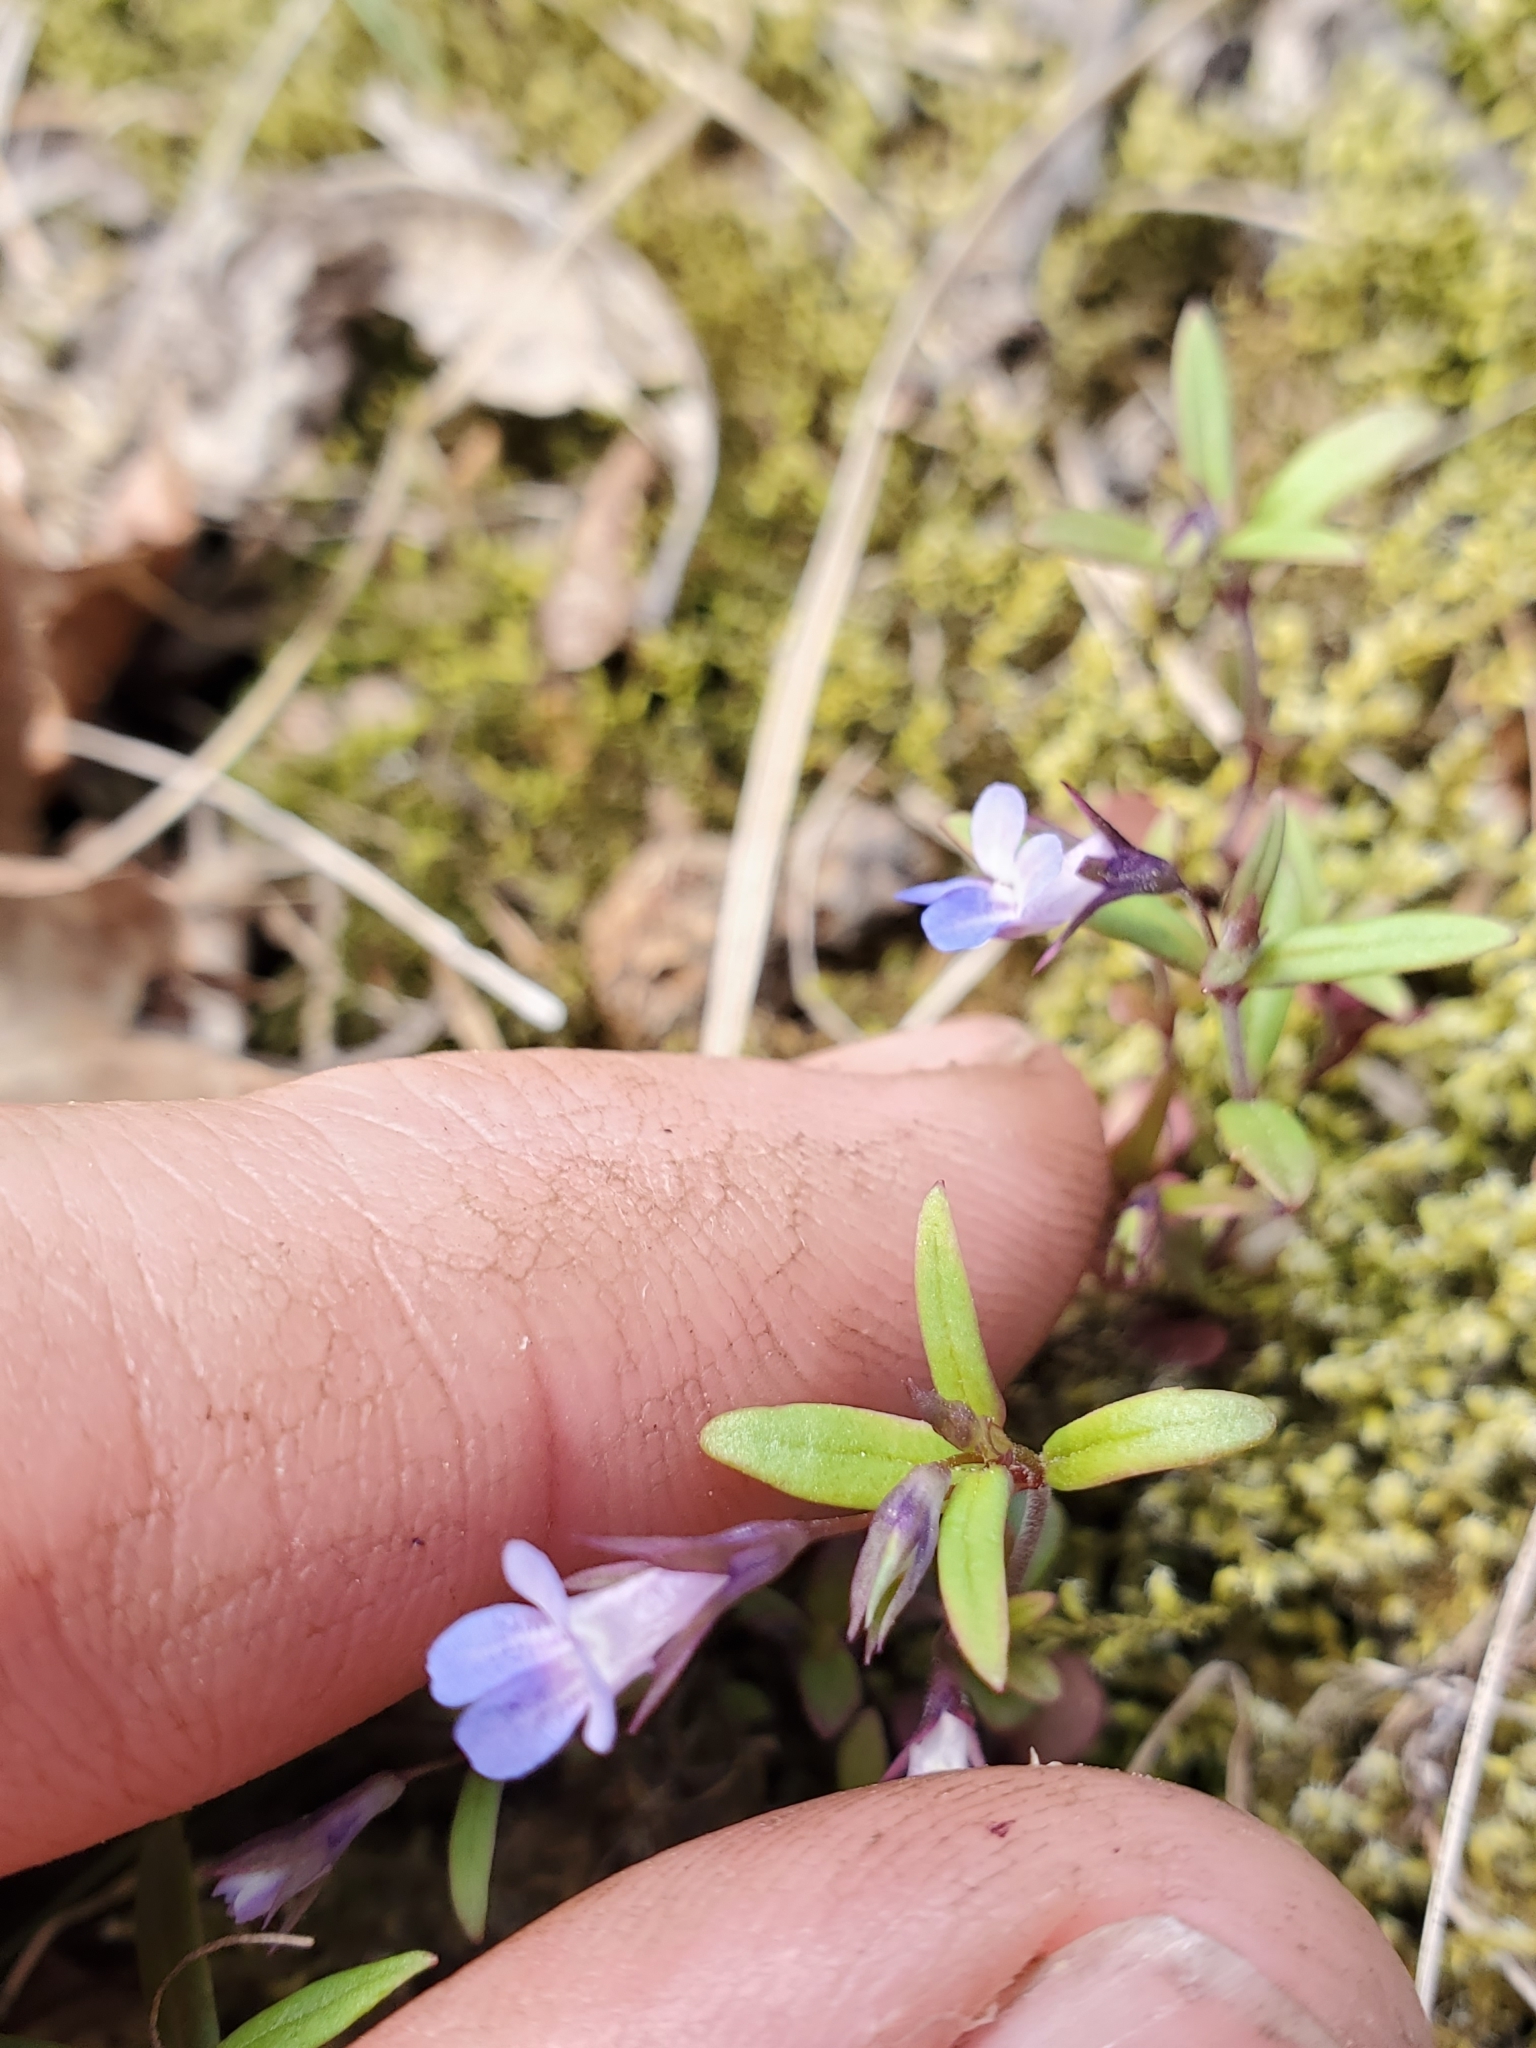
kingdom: Plantae
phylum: Tracheophyta
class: Magnoliopsida
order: Lamiales
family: Plantaginaceae
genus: Collinsia
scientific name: Collinsia parviflora
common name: Blue-lips
